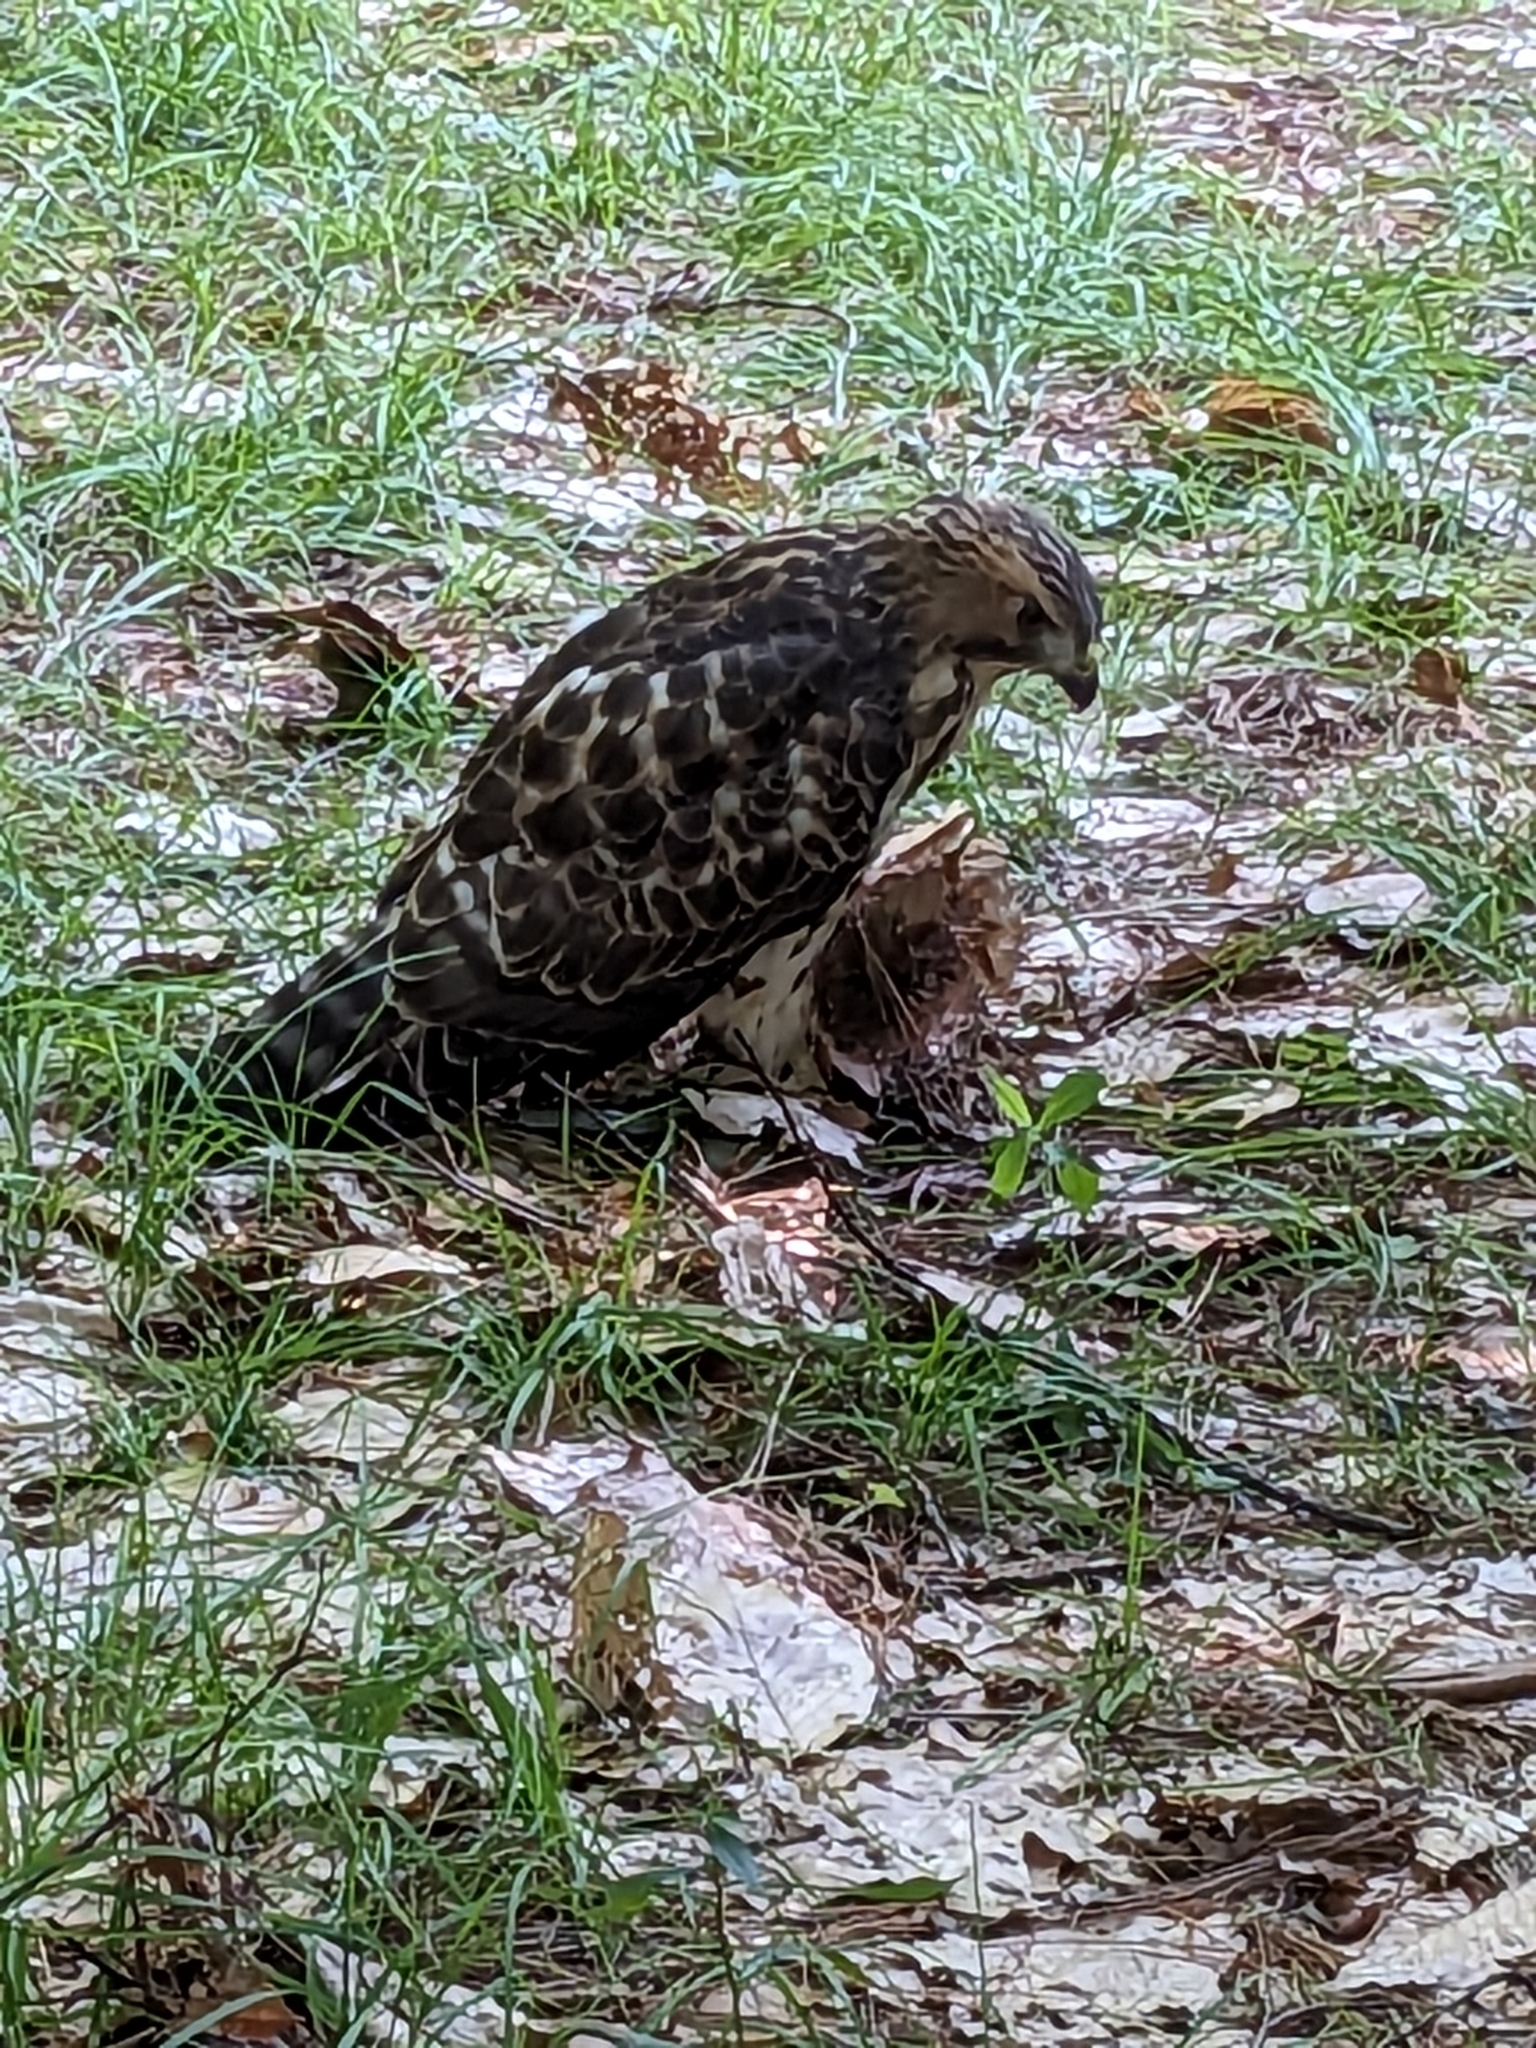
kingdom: Animalia
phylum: Chordata
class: Aves
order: Accipitriformes
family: Accipitridae
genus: Buteo
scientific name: Buteo platypterus
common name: Broad-winged hawk
